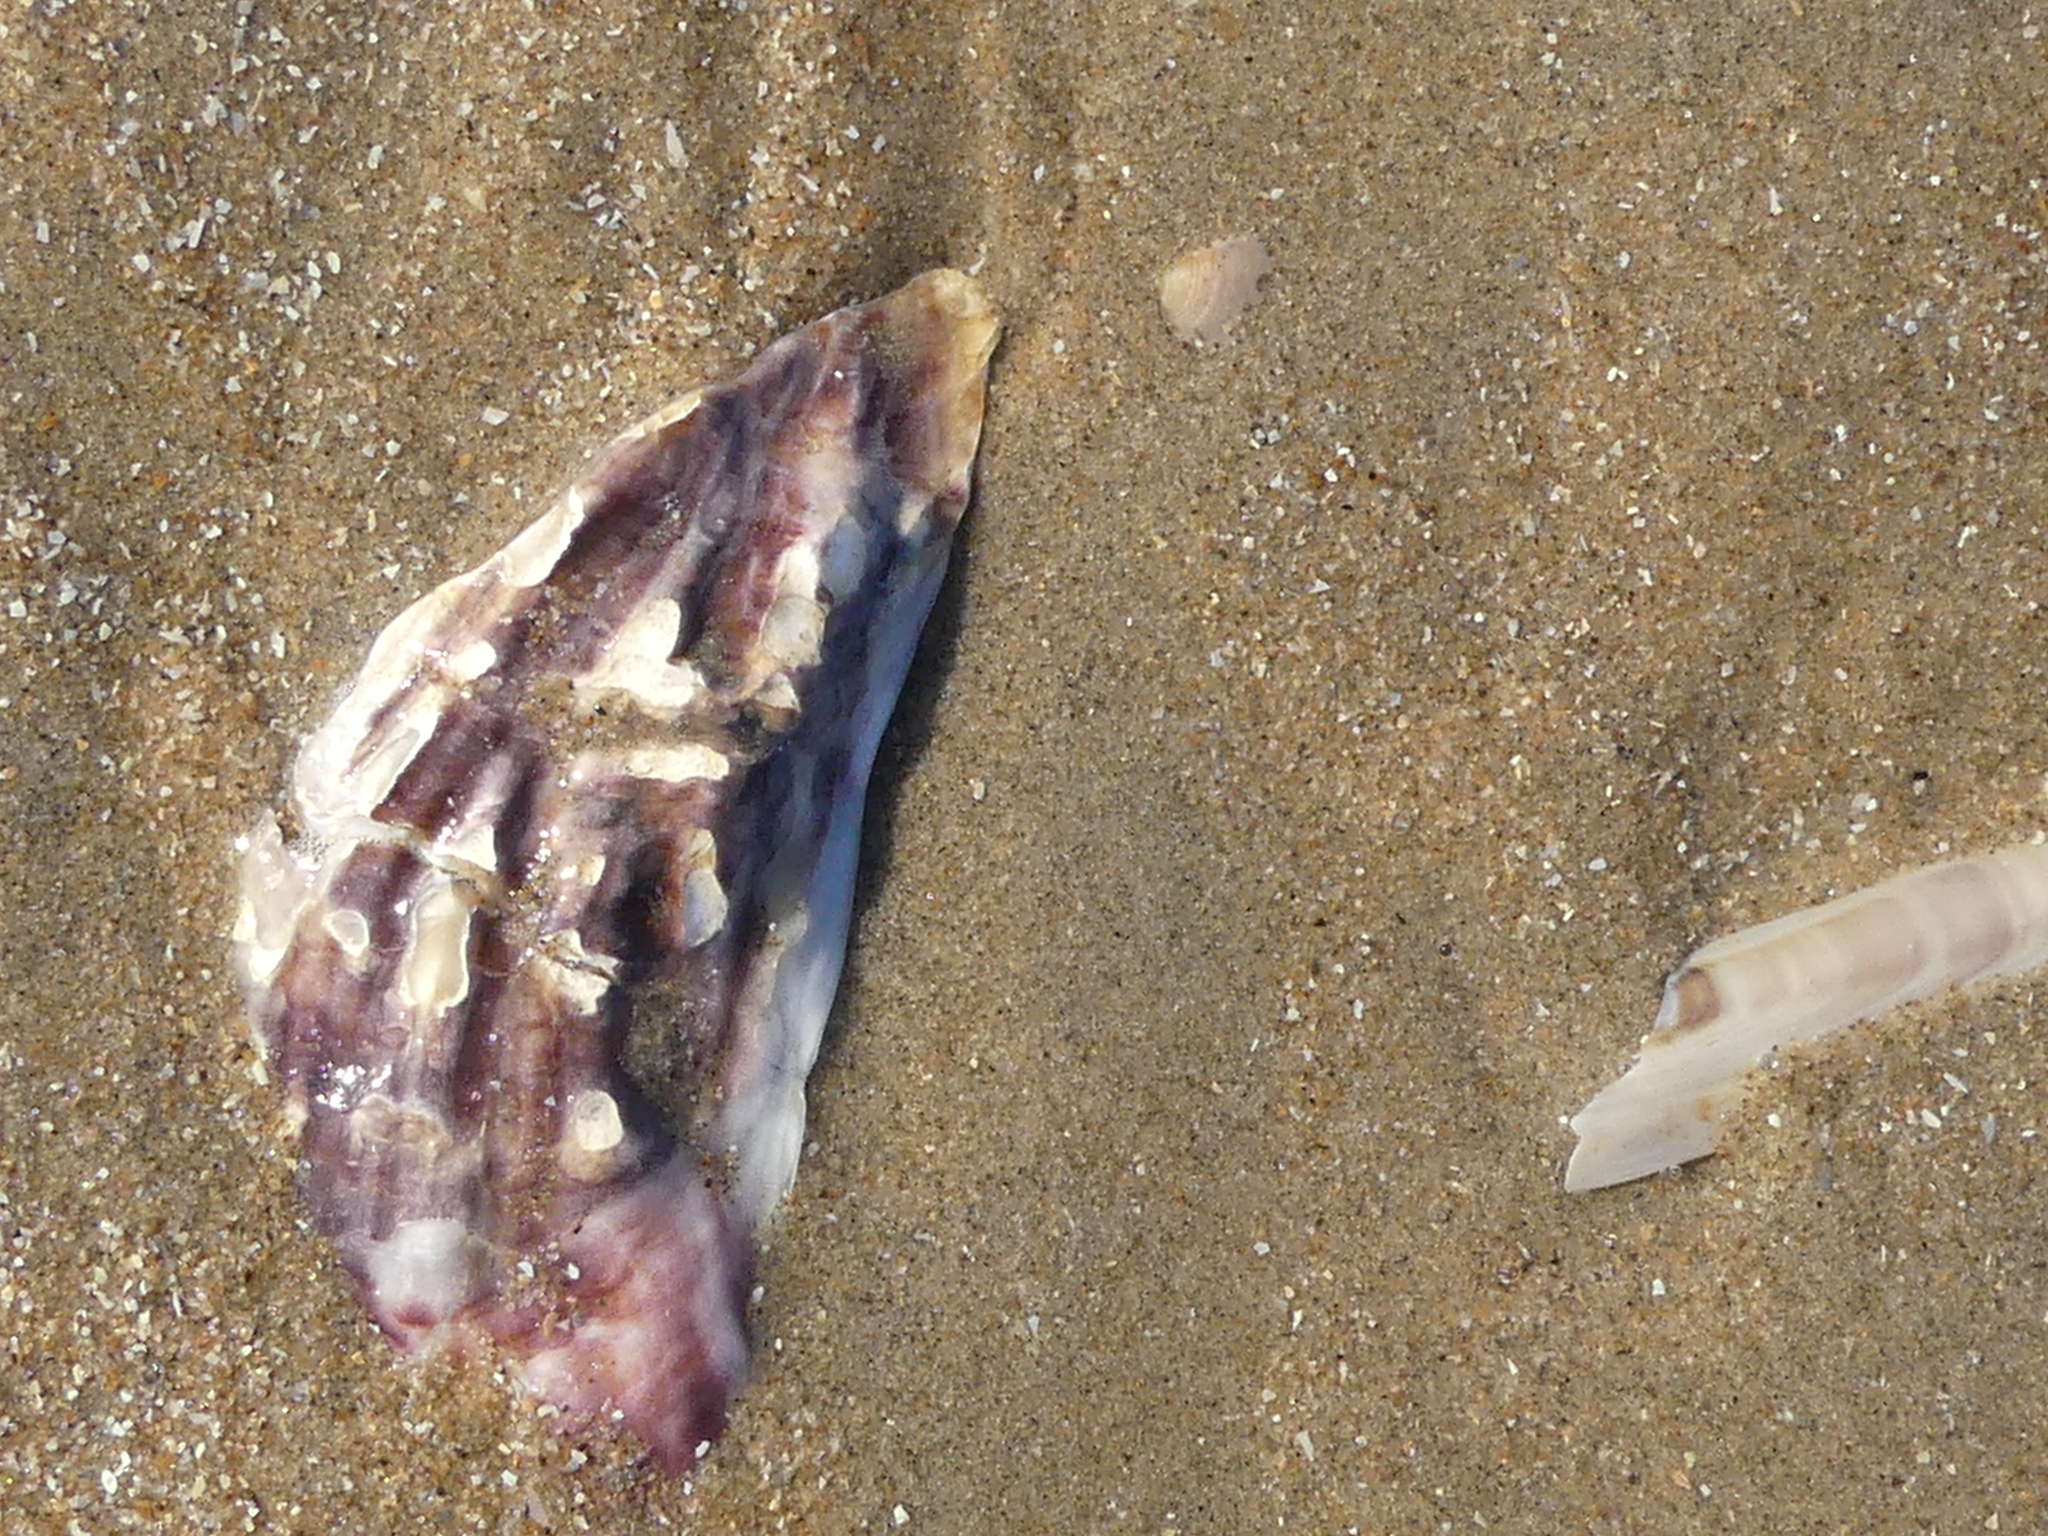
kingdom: Animalia
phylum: Mollusca
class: Bivalvia
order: Ostreida
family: Ostreidae
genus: Magallana
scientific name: Magallana gigas
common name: Pacific oyster
